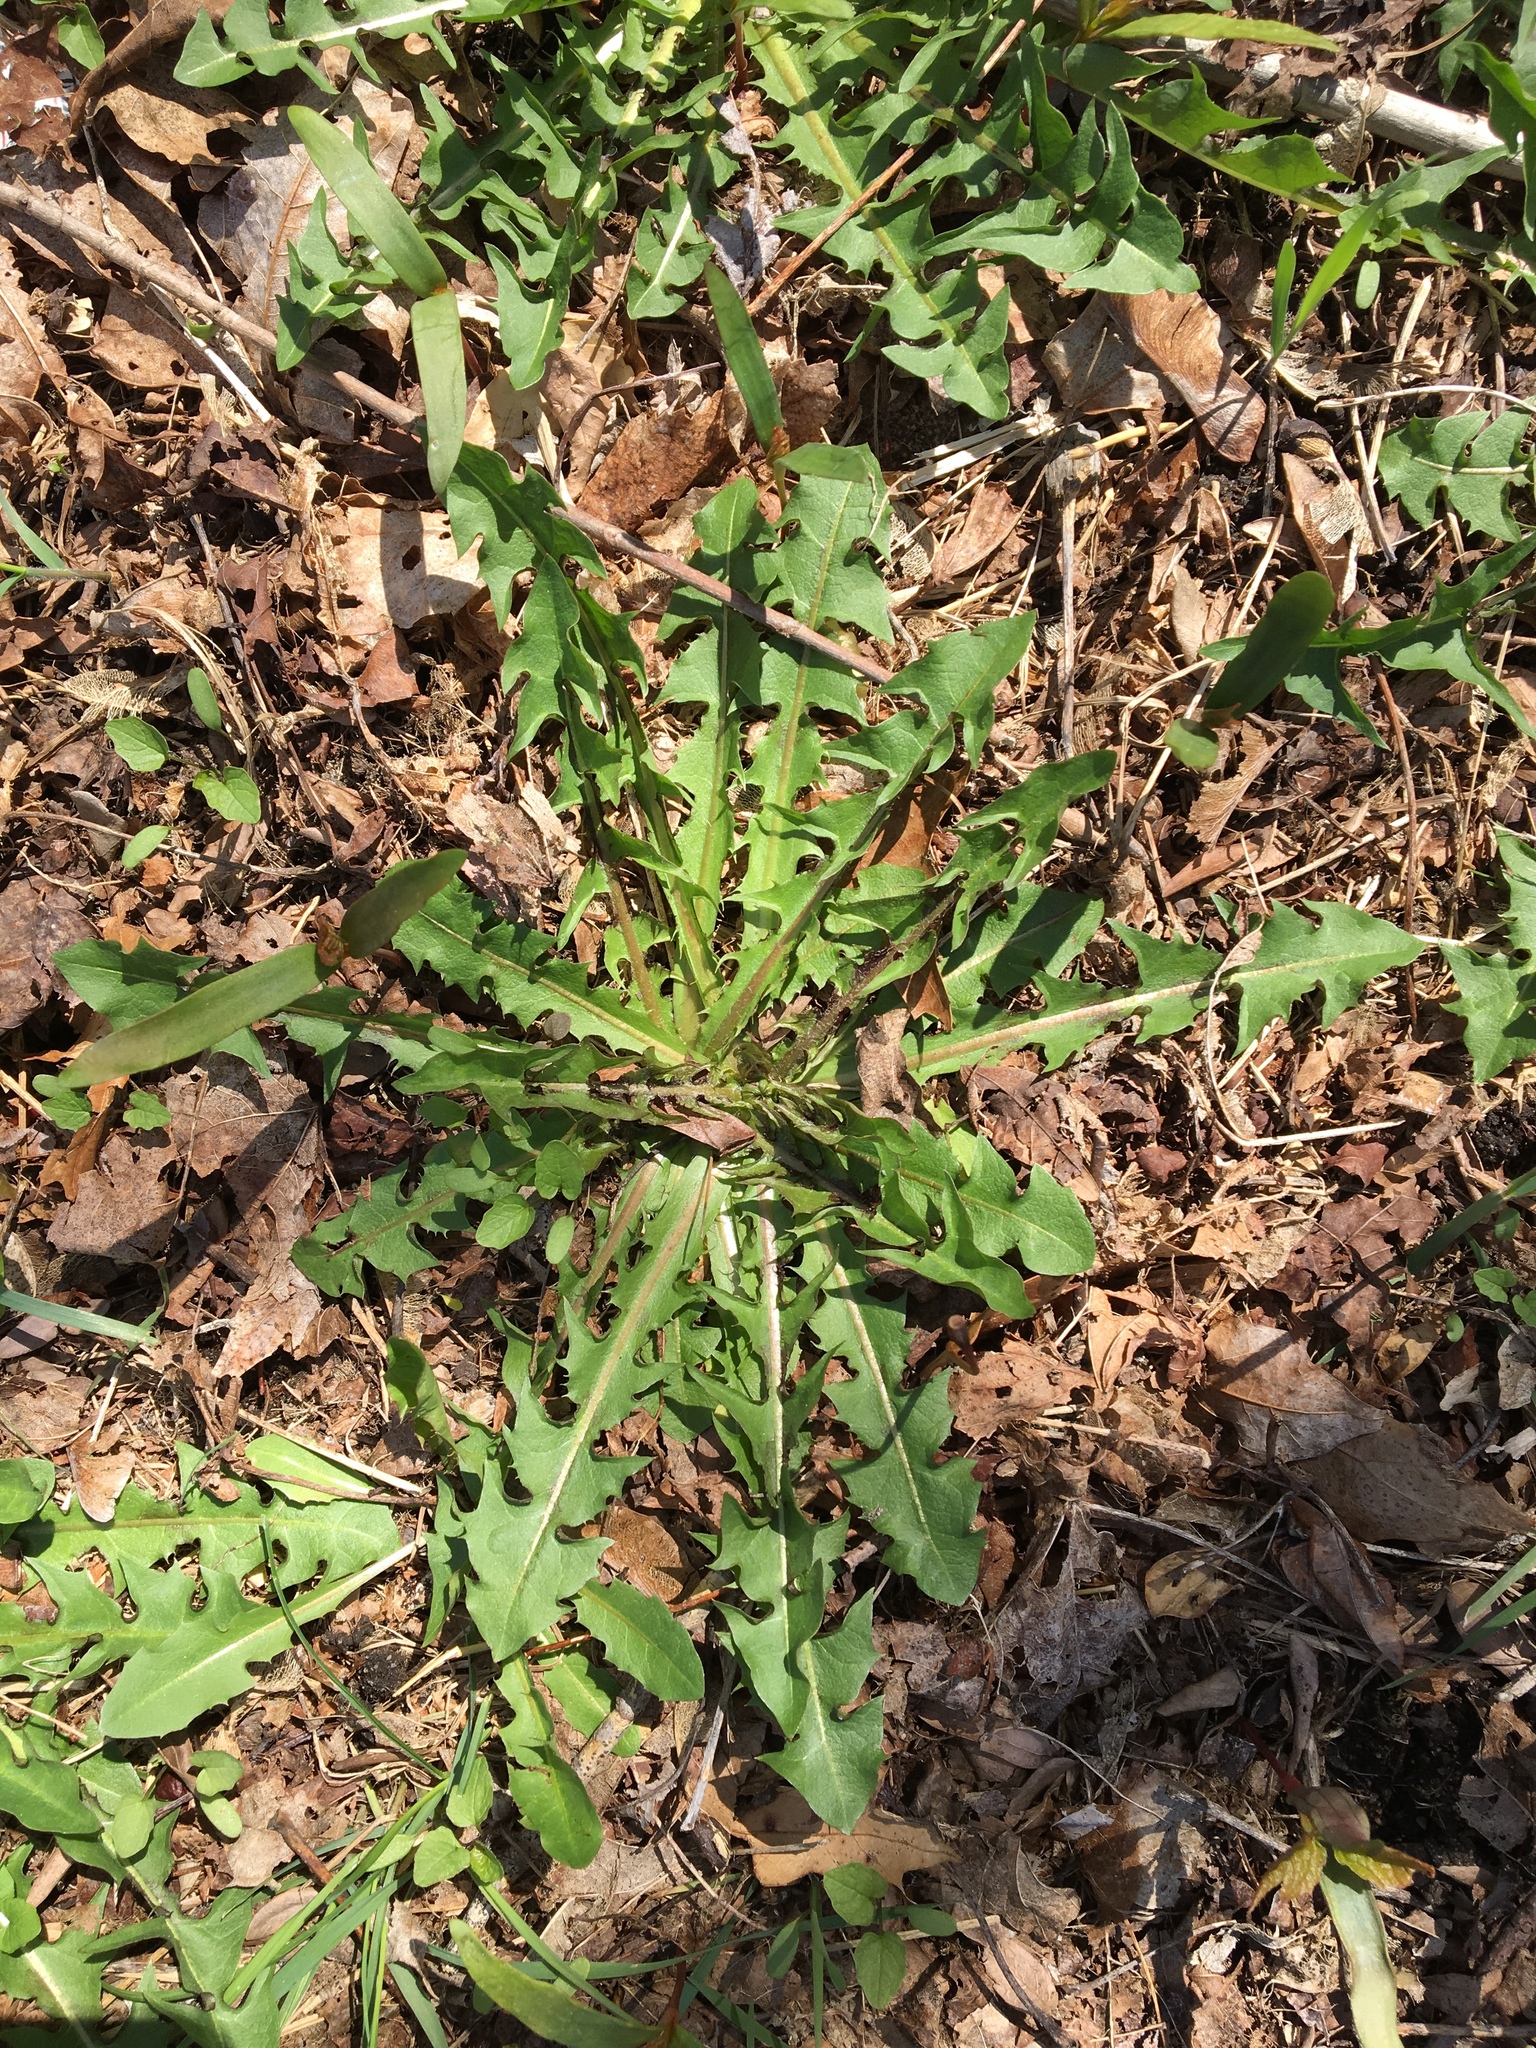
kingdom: Plantae
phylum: Tracheophyta
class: Magnoliopsida
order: Asterales
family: Asteraceae
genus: Taraxacum
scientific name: Taraxacum officinale
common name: Common dandelion
